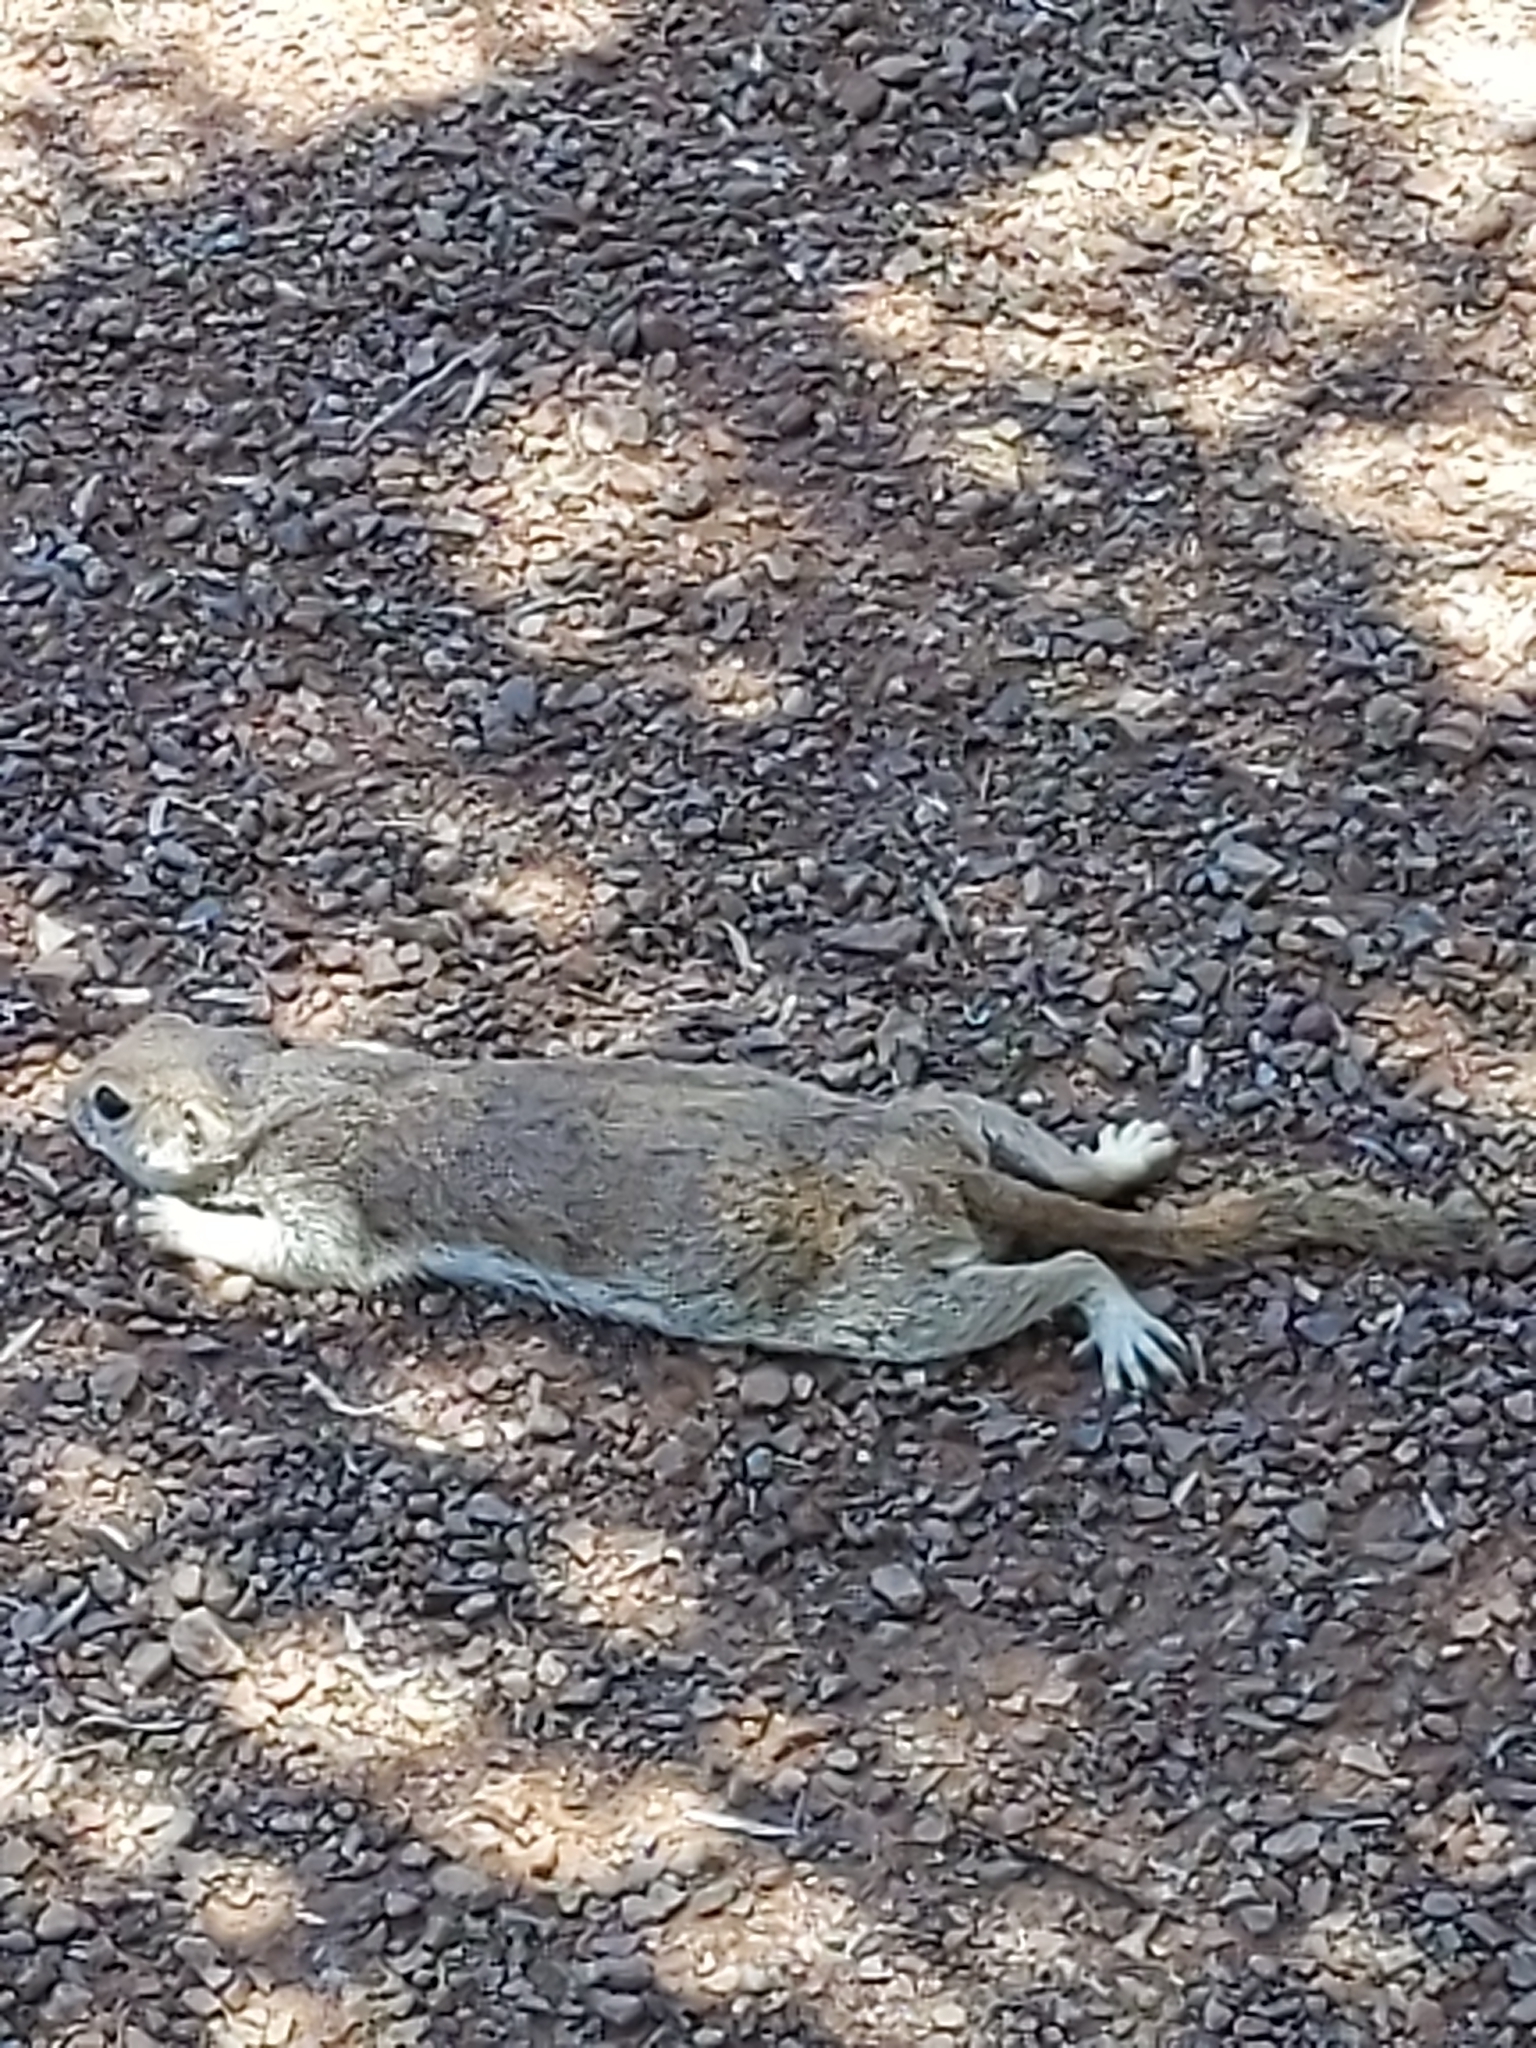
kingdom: Animalia
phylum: Chordata
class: Mammalia
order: Rodentia
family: Sciuridae
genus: Xerospermophilus
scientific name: Xerospermophilus tereticaudus
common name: Round-tailed ground squirrel
